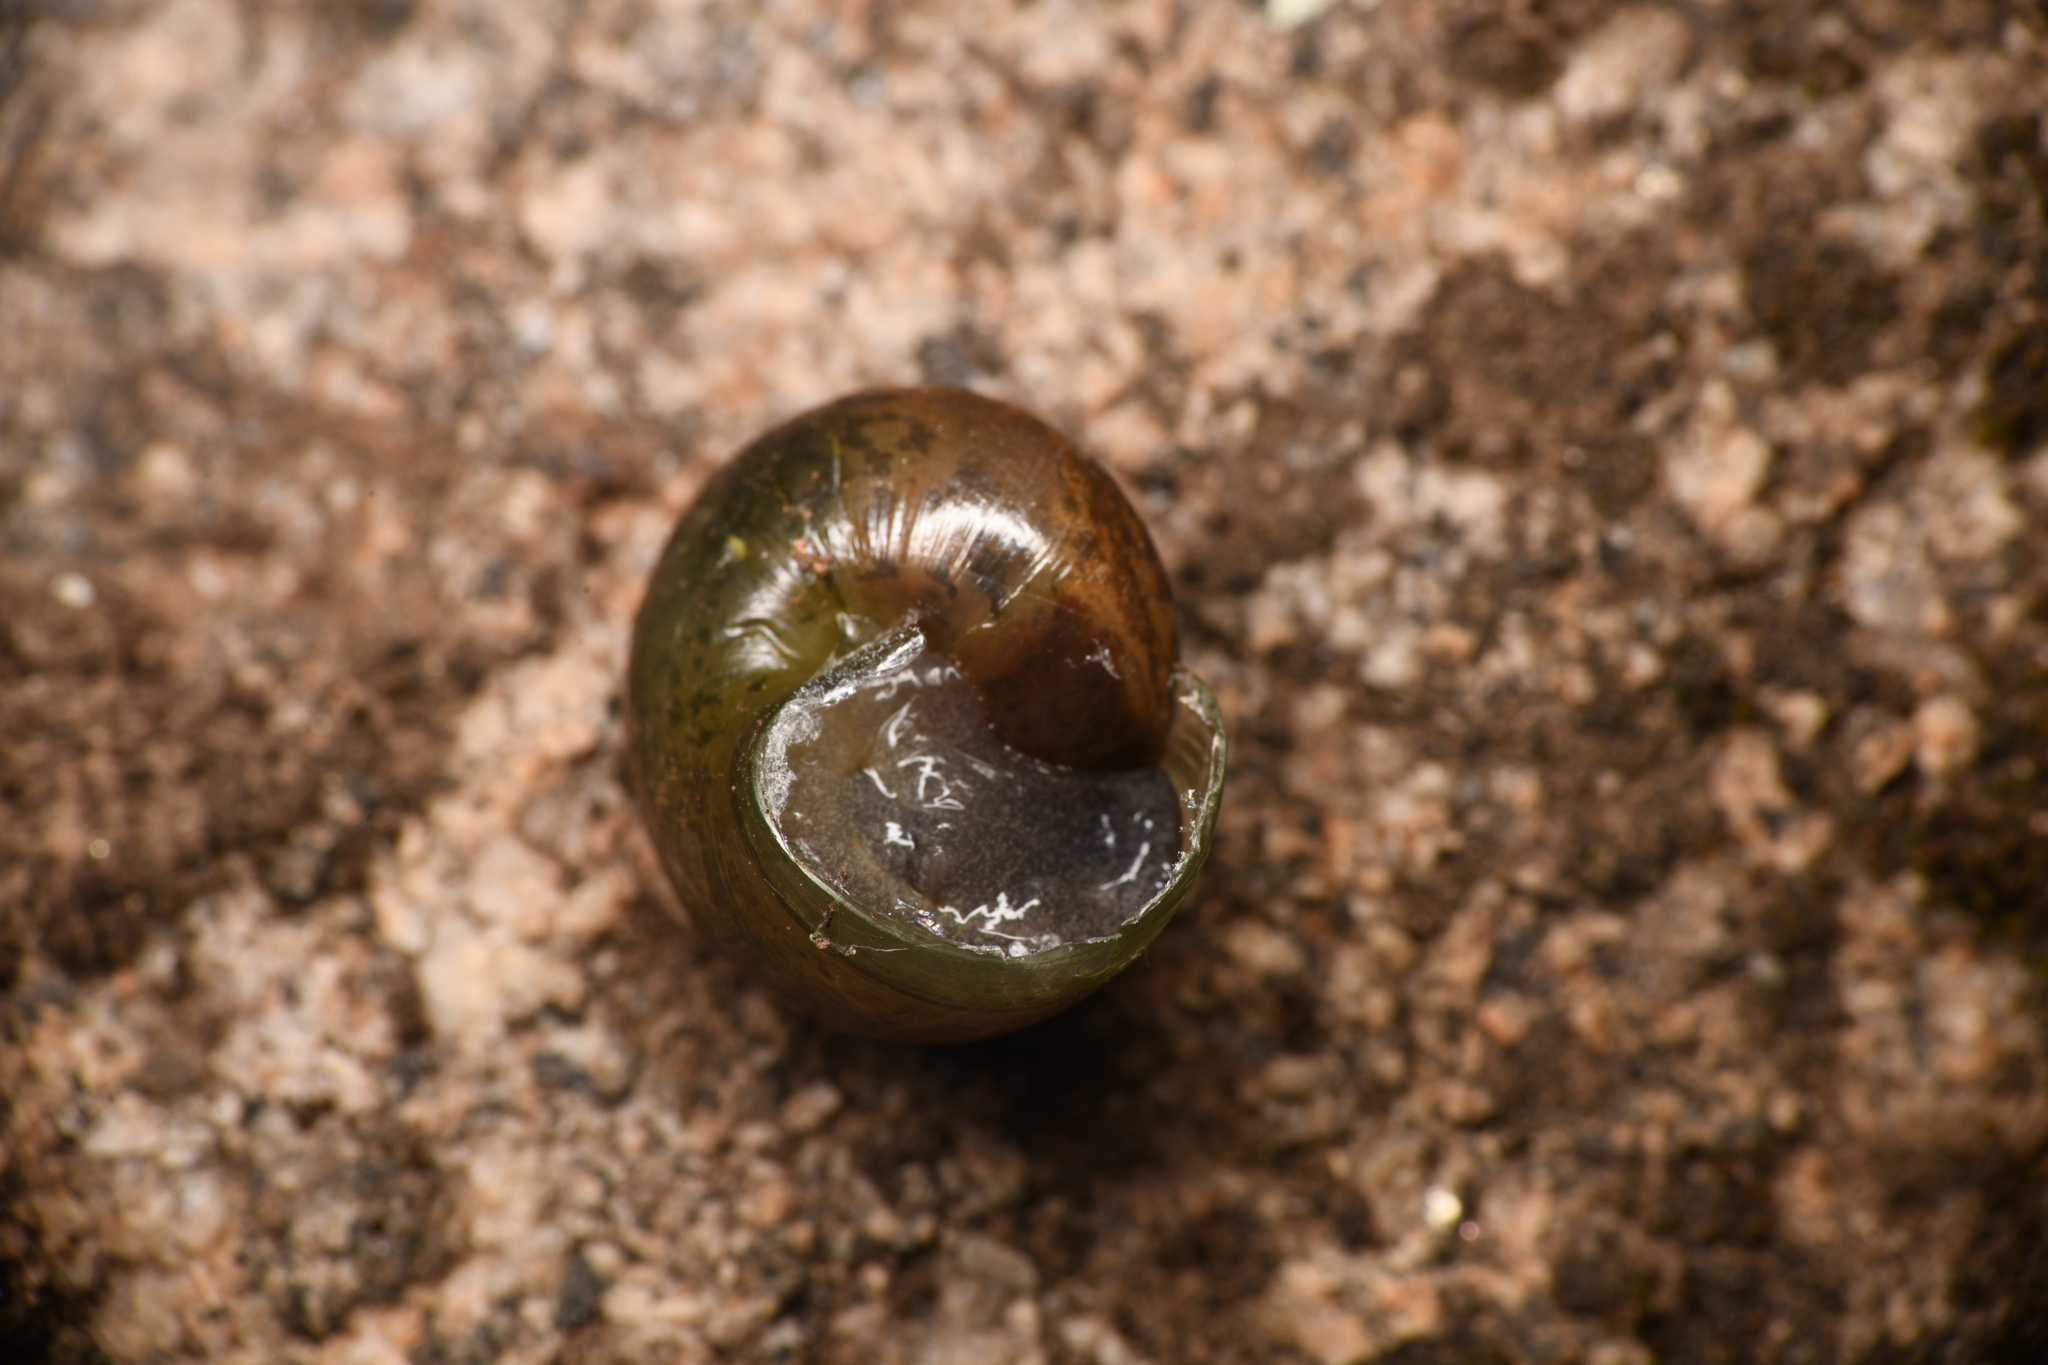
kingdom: Animalia
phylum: Mollusca
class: Gastropoda
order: Stylommatophora
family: Xanthonychidae
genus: Helminthoglypta
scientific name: Helminthoglypta tudiculata
